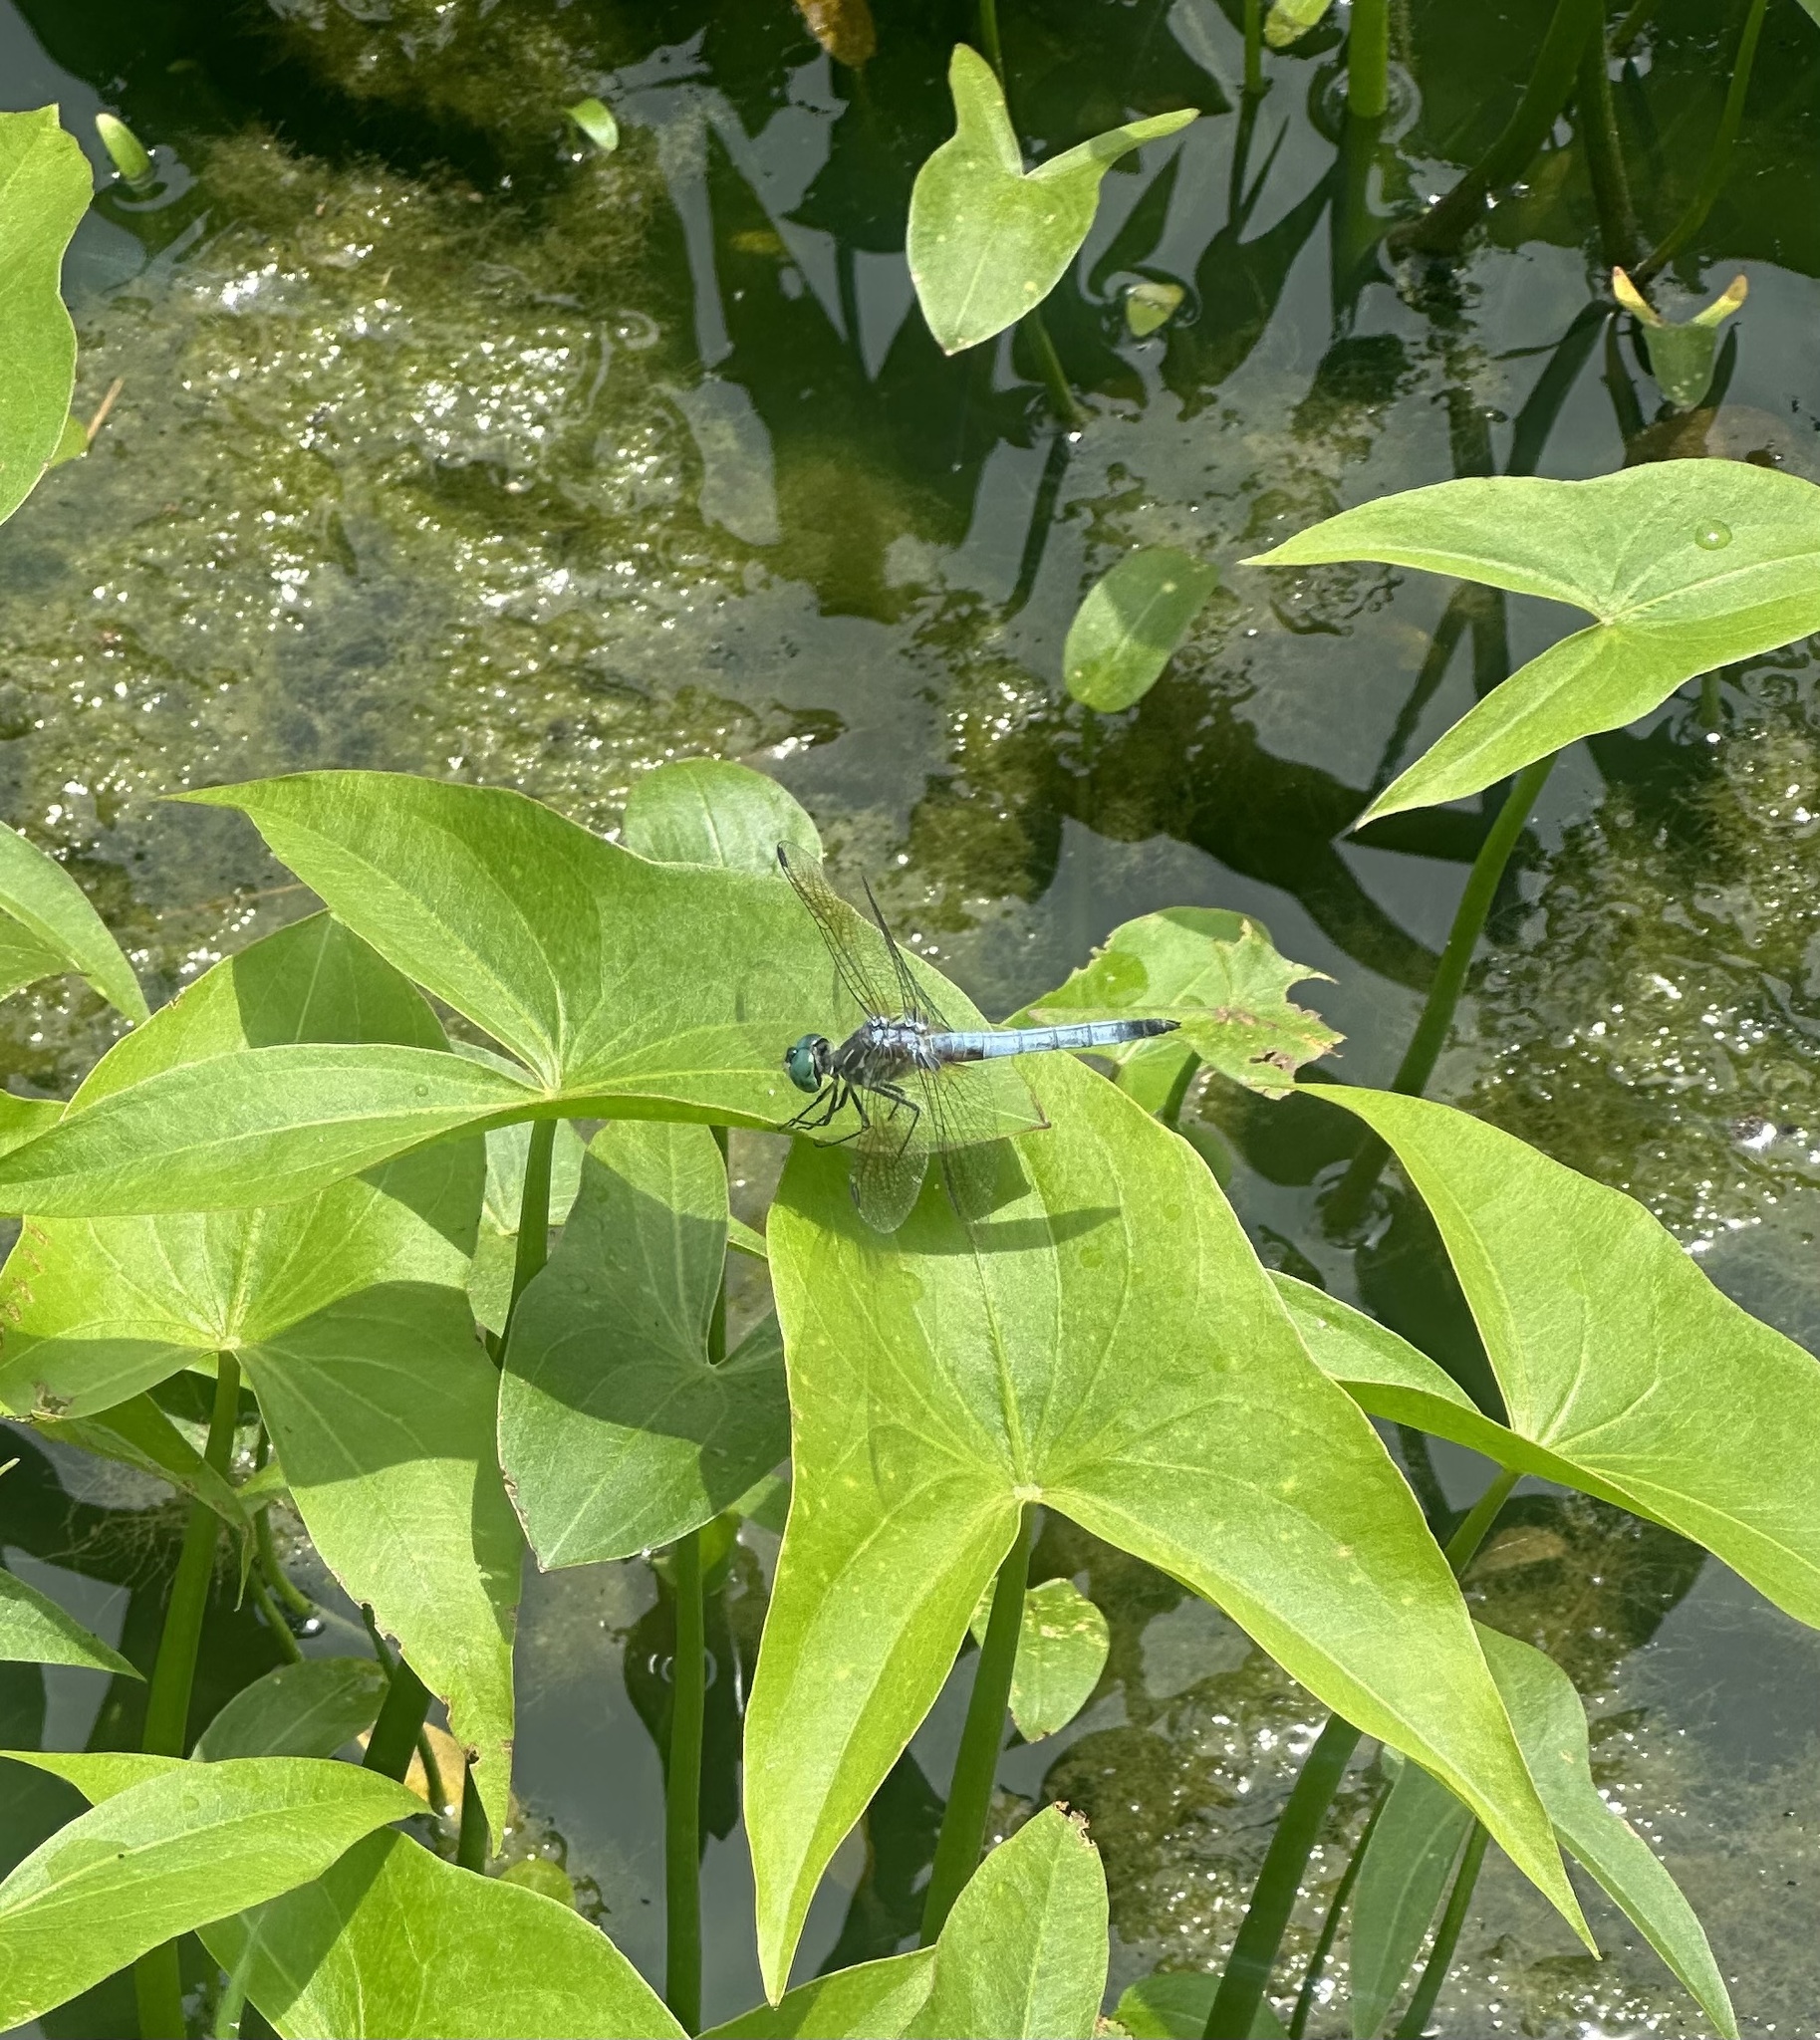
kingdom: Animalia
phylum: Arthropoda
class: Insecta
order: Odonata
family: Libellulidae
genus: Pachydiplax
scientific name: Pachydiplax longipennis
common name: Blue dasher
